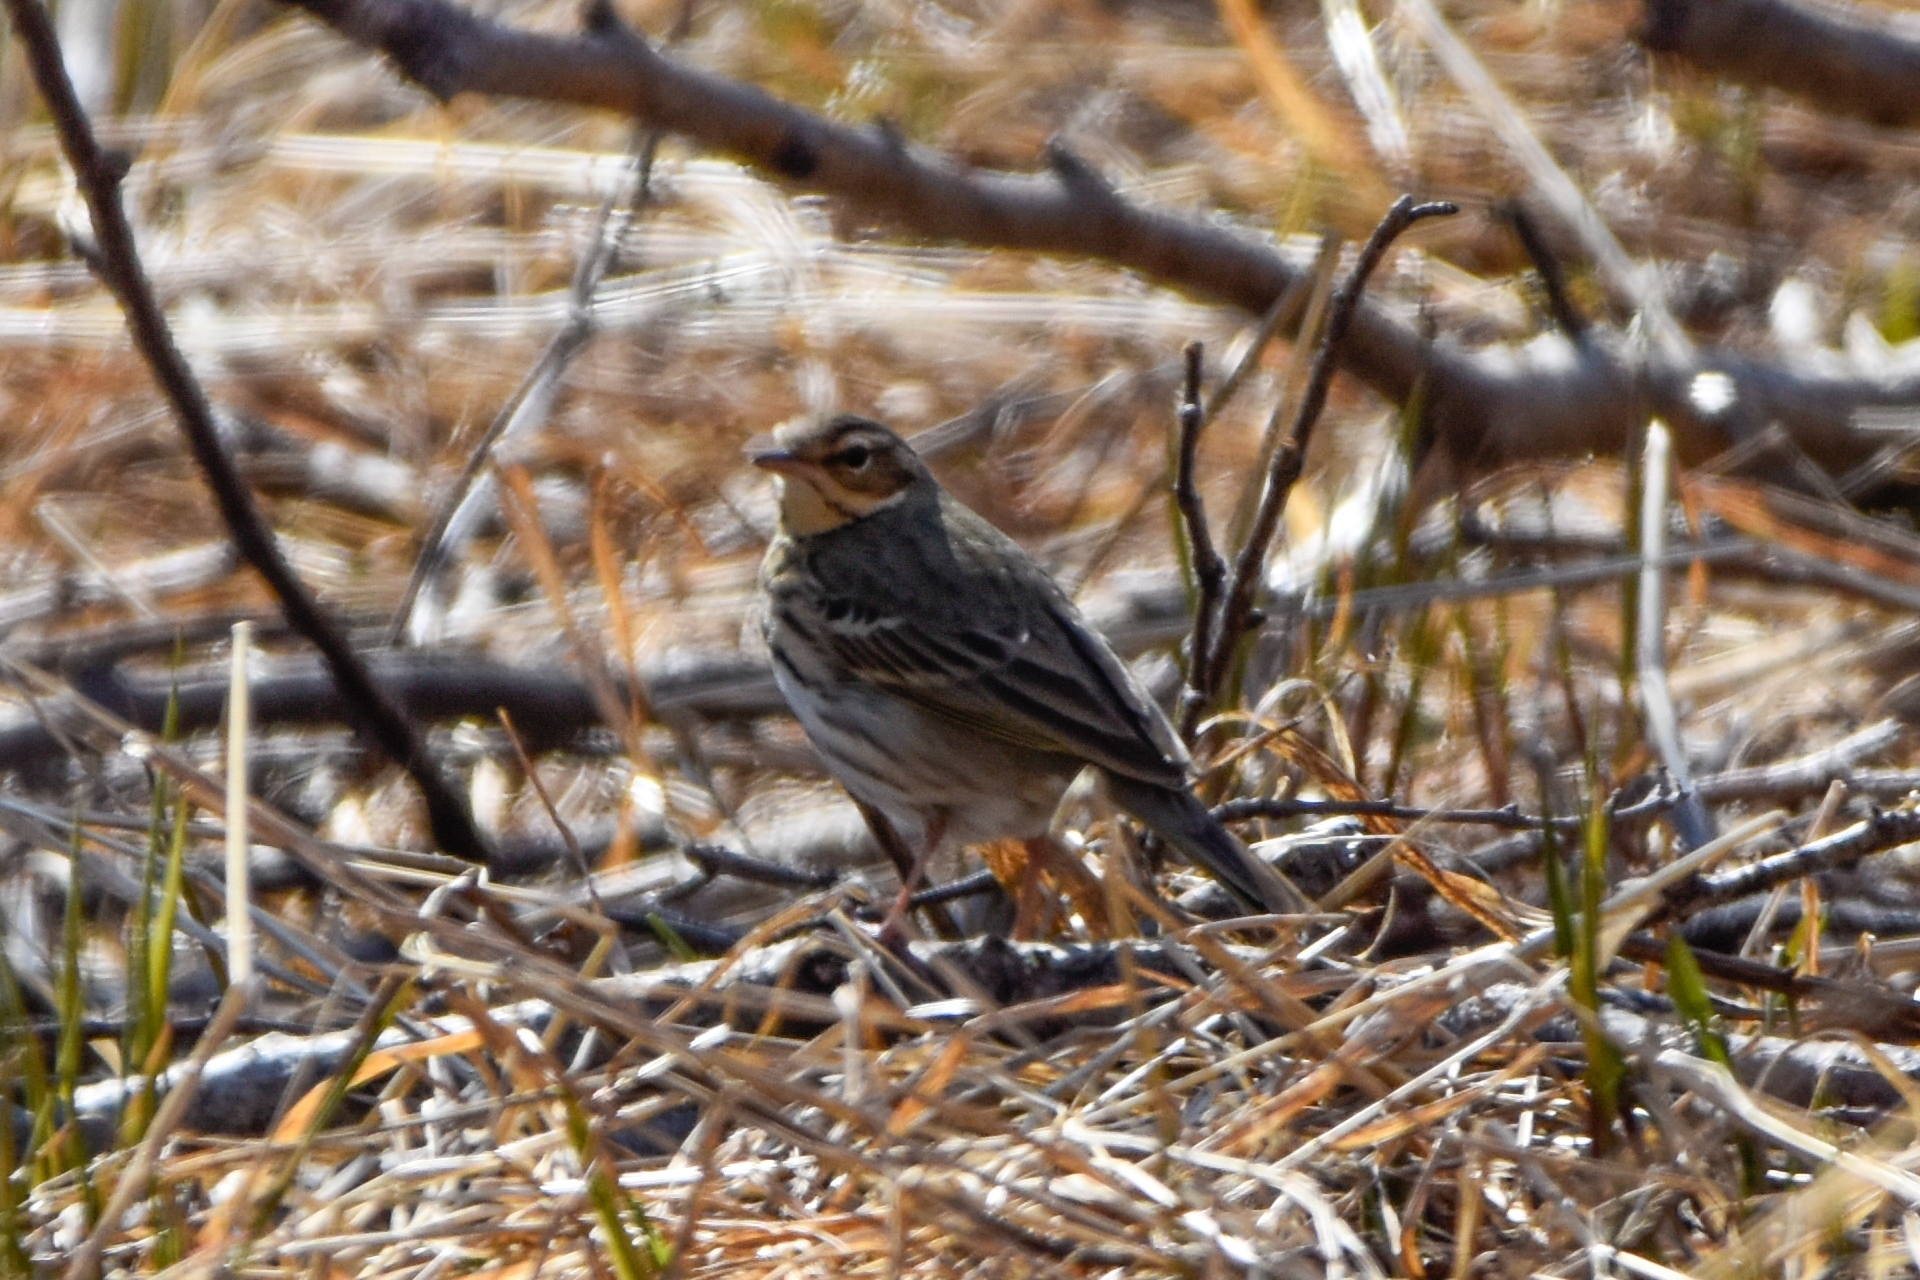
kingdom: Animalia
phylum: Chordata
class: Aves
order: Passeriformes
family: Motacillidae
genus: Anthus
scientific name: Anthus hodgsoni
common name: Olive-backed pipit
